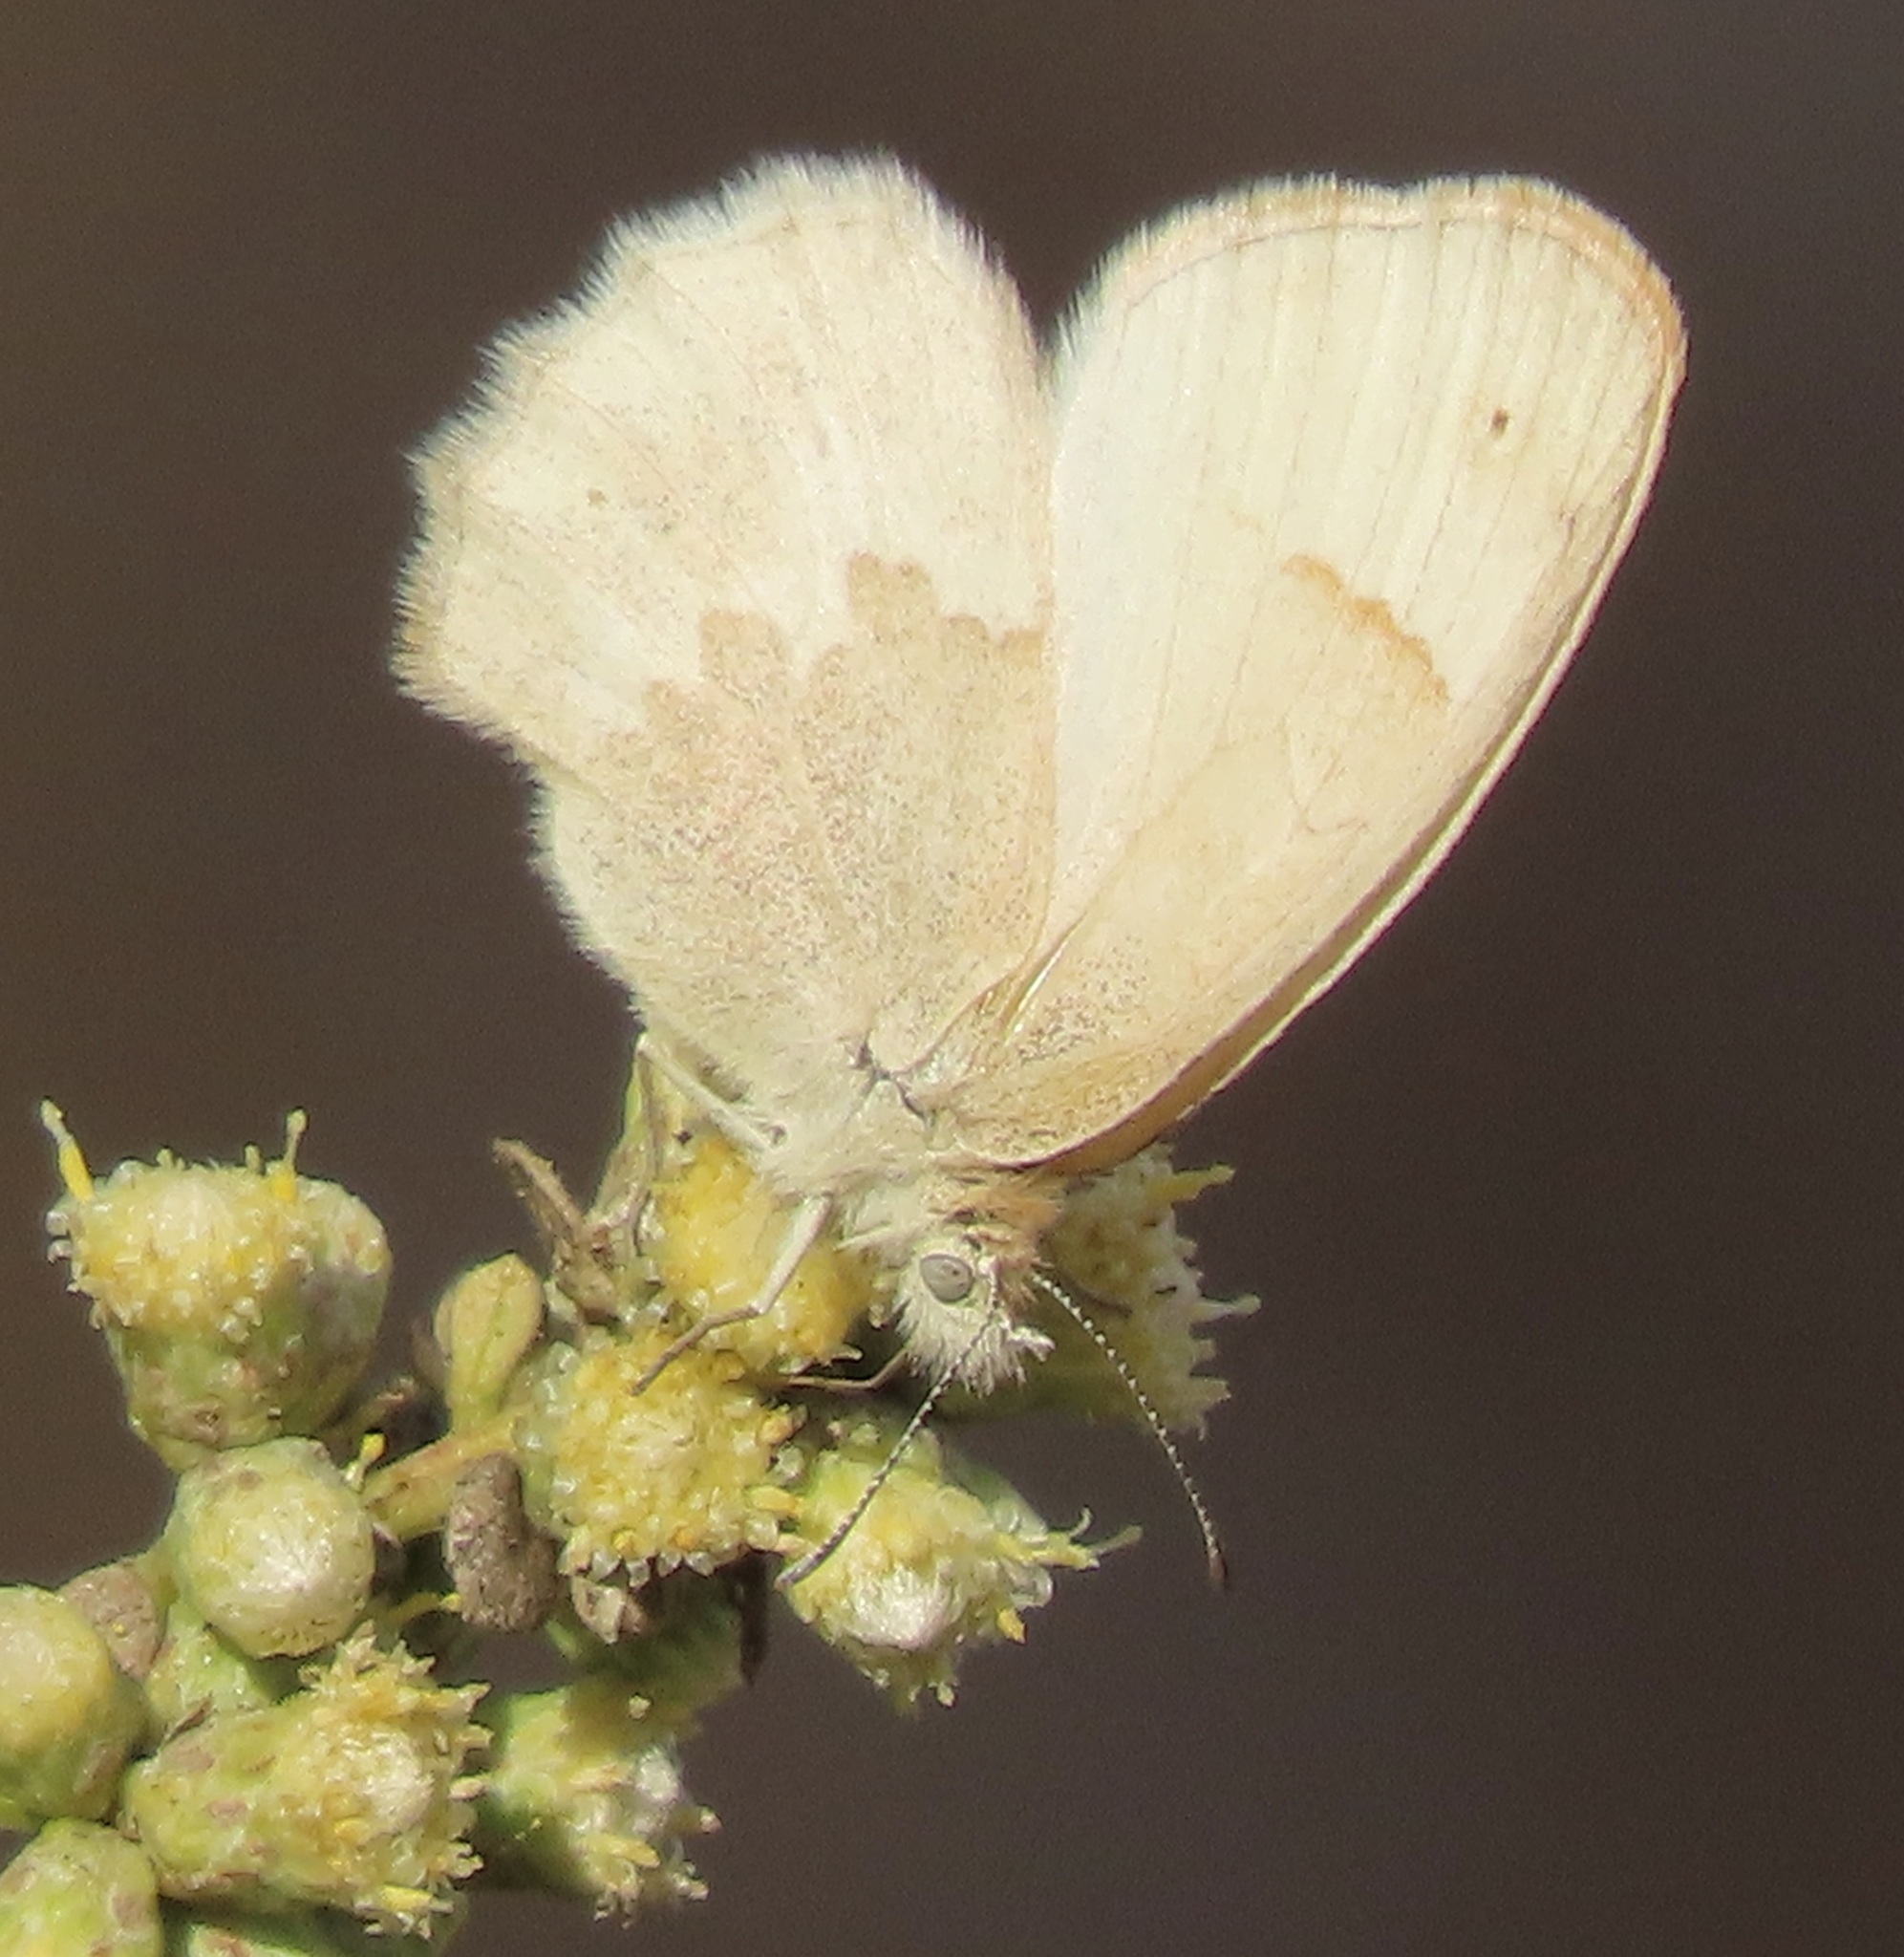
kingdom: Animalia
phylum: Arthropoda
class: Insecta
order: Lepidoptera
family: Nymphalidae
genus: Coenonympha
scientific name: Coenonympha california
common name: Common ringlet
